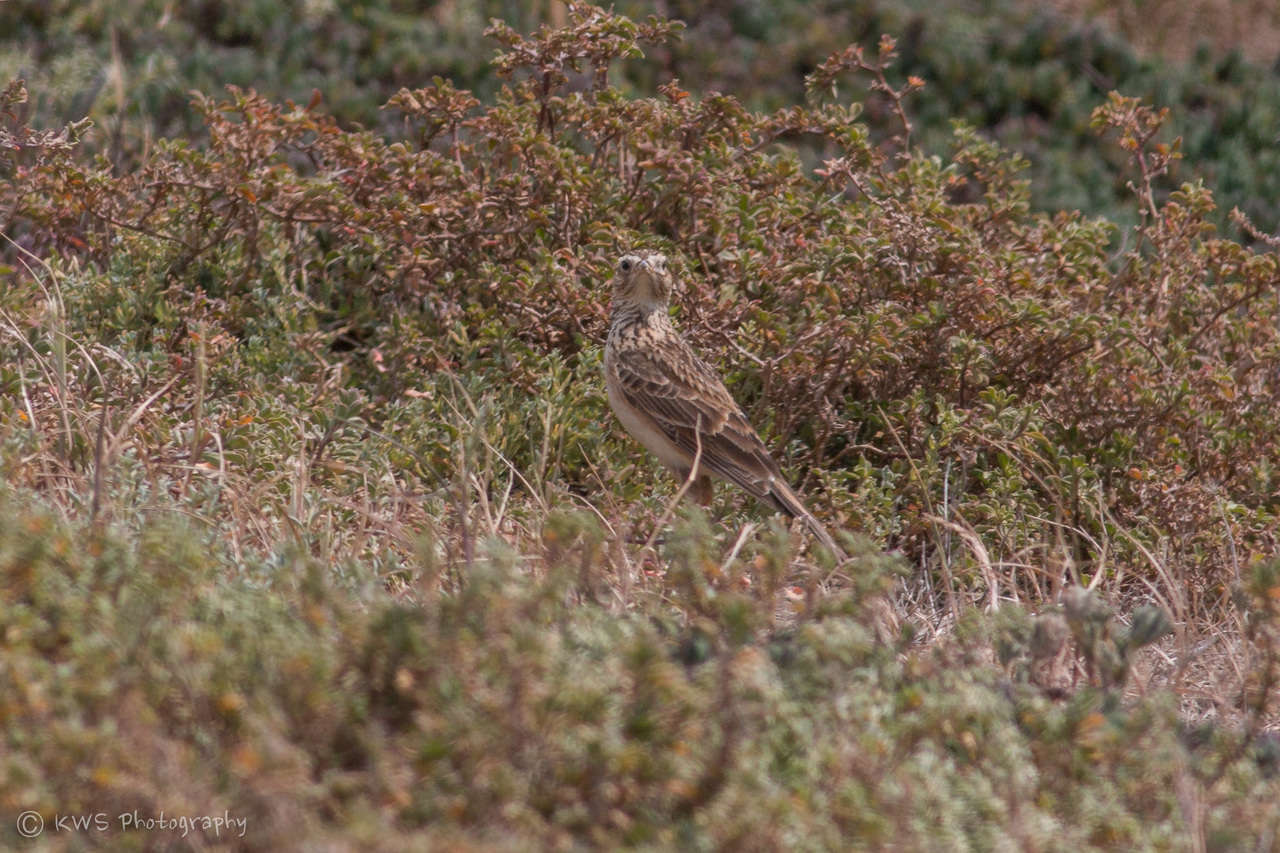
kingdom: Animalia
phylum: Chordata
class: Aves
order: Passeriformes
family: Alaudidae
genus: Alauda
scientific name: Alauda arvensis
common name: Eurasian skylark
